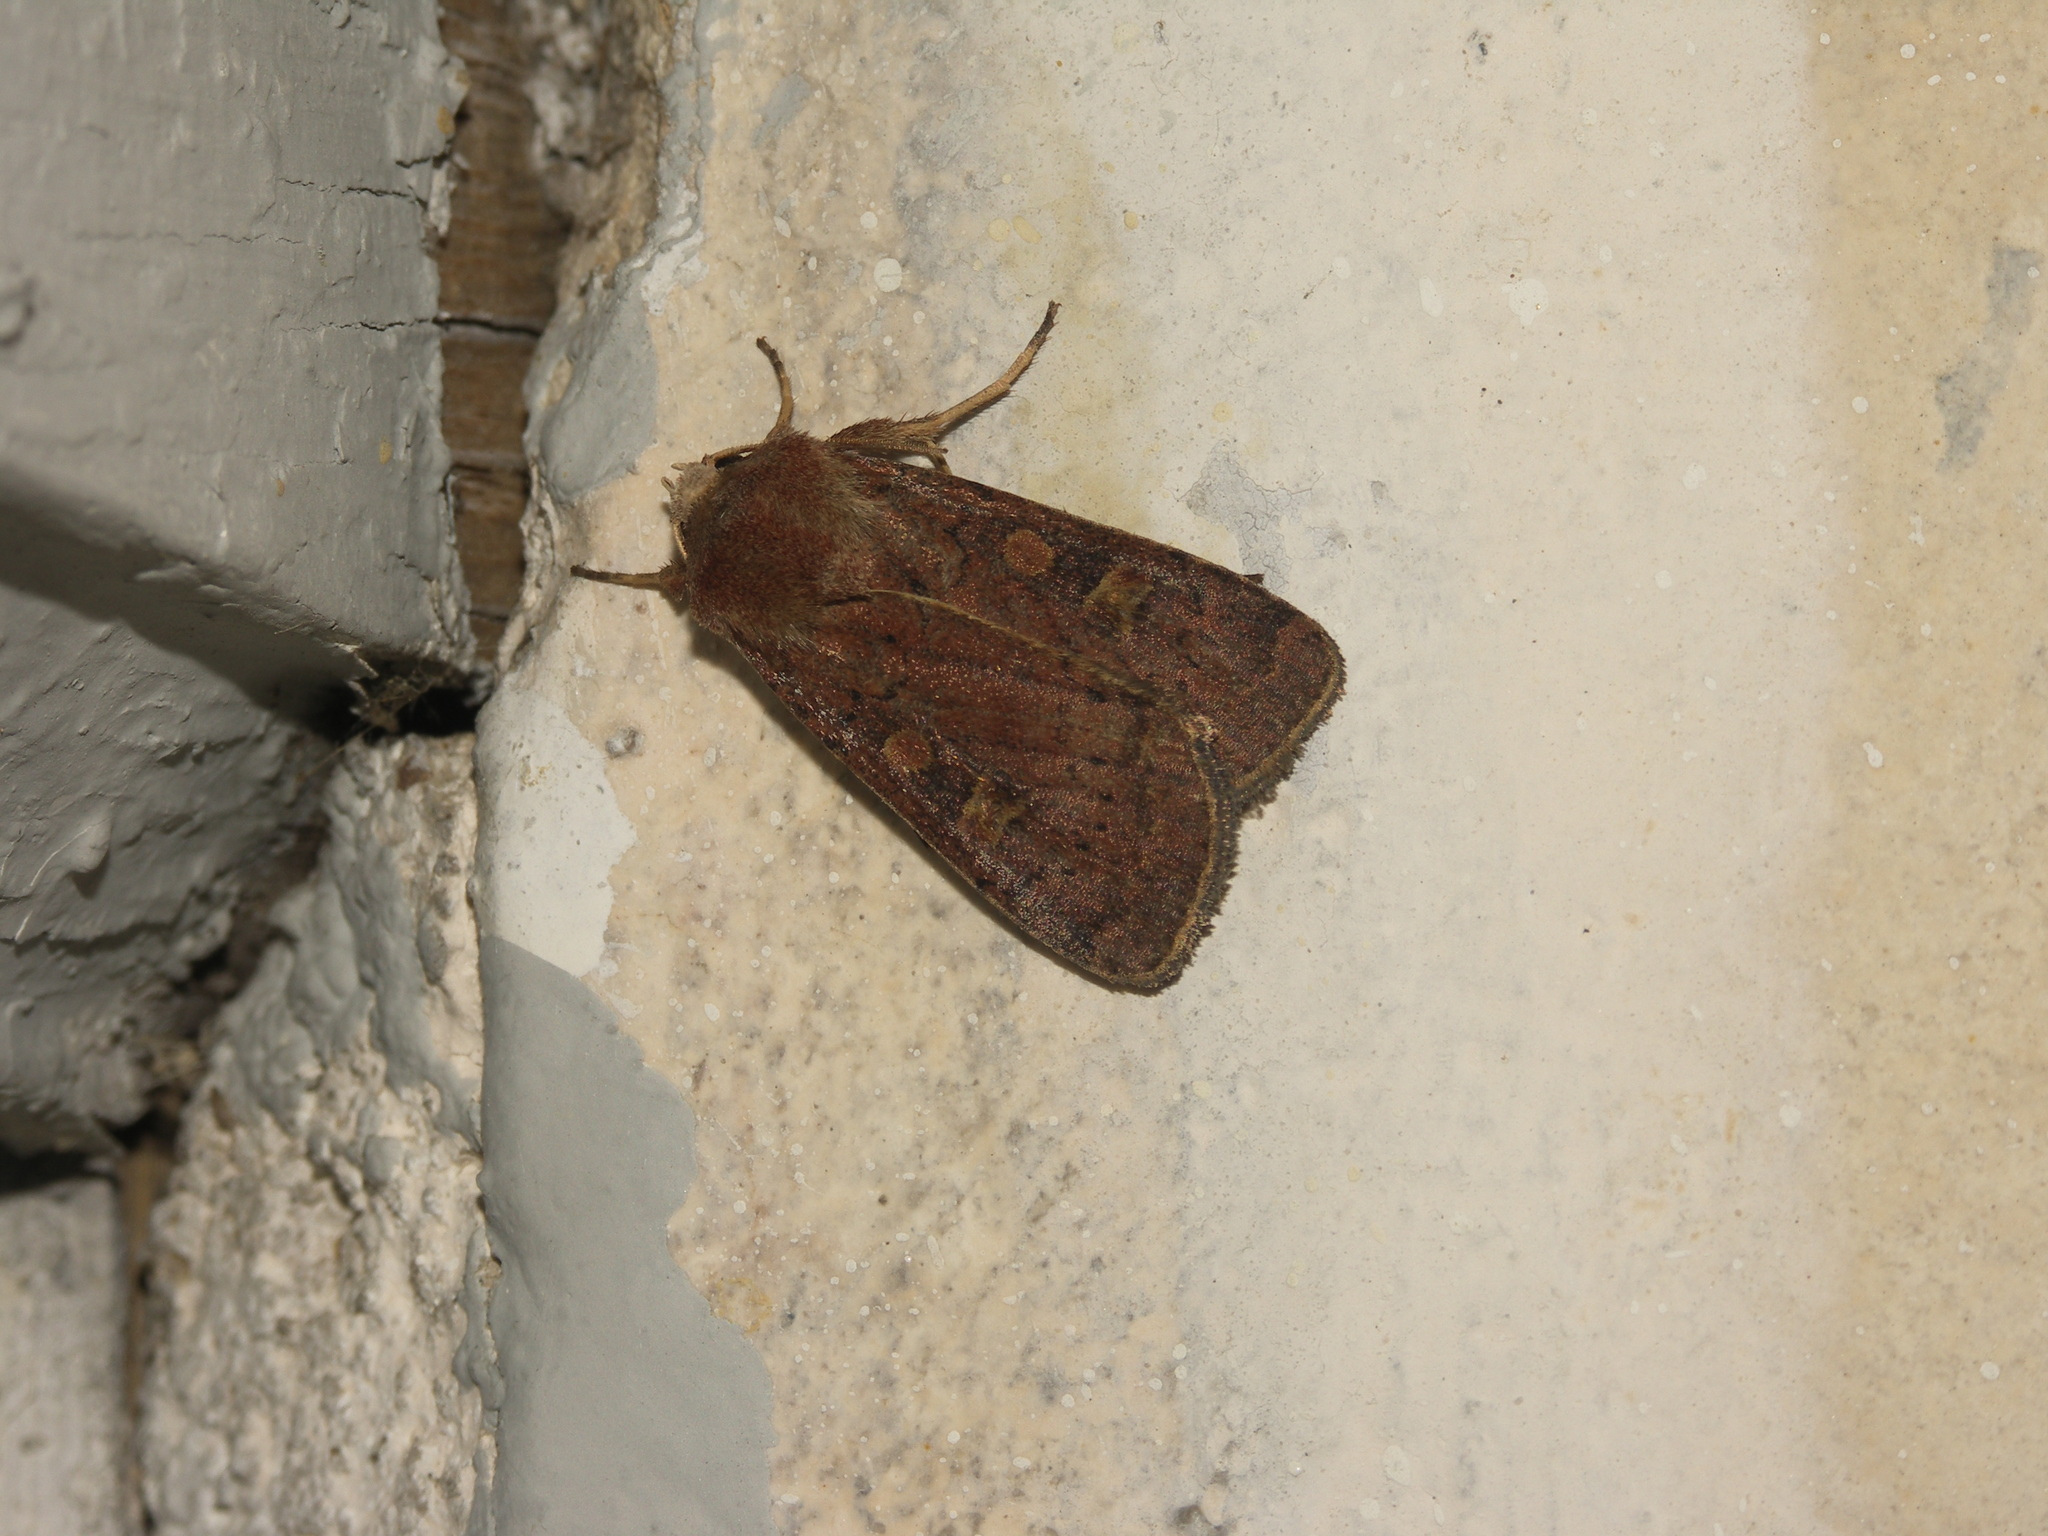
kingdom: Animalia
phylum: Arthropoda
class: Insecta
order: Lepidoptera
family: Noctuidae
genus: Xestia
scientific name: Xestia xanthographa
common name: Square-spot rustic
